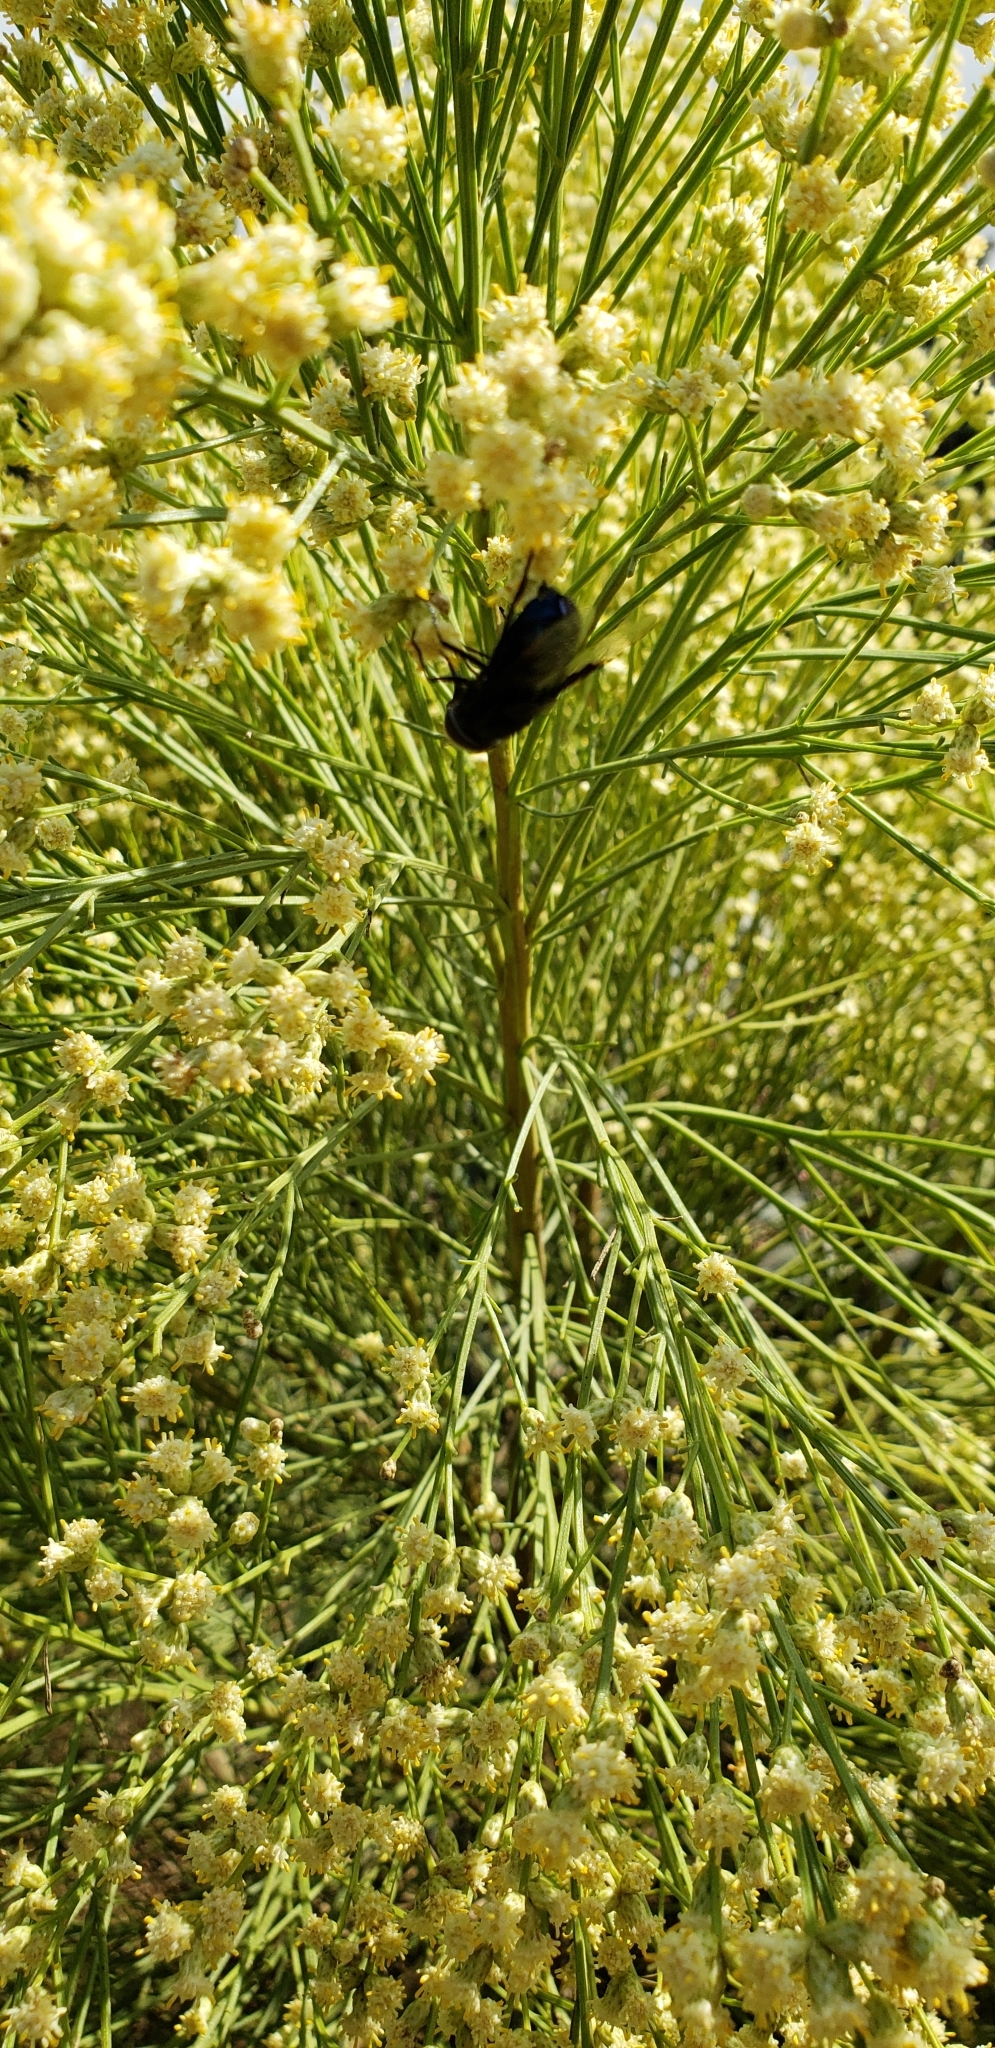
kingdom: Animalia
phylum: Arthropoda
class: Insecta
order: Diptera
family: Syrphidae
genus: Copestylum
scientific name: Copestylum
